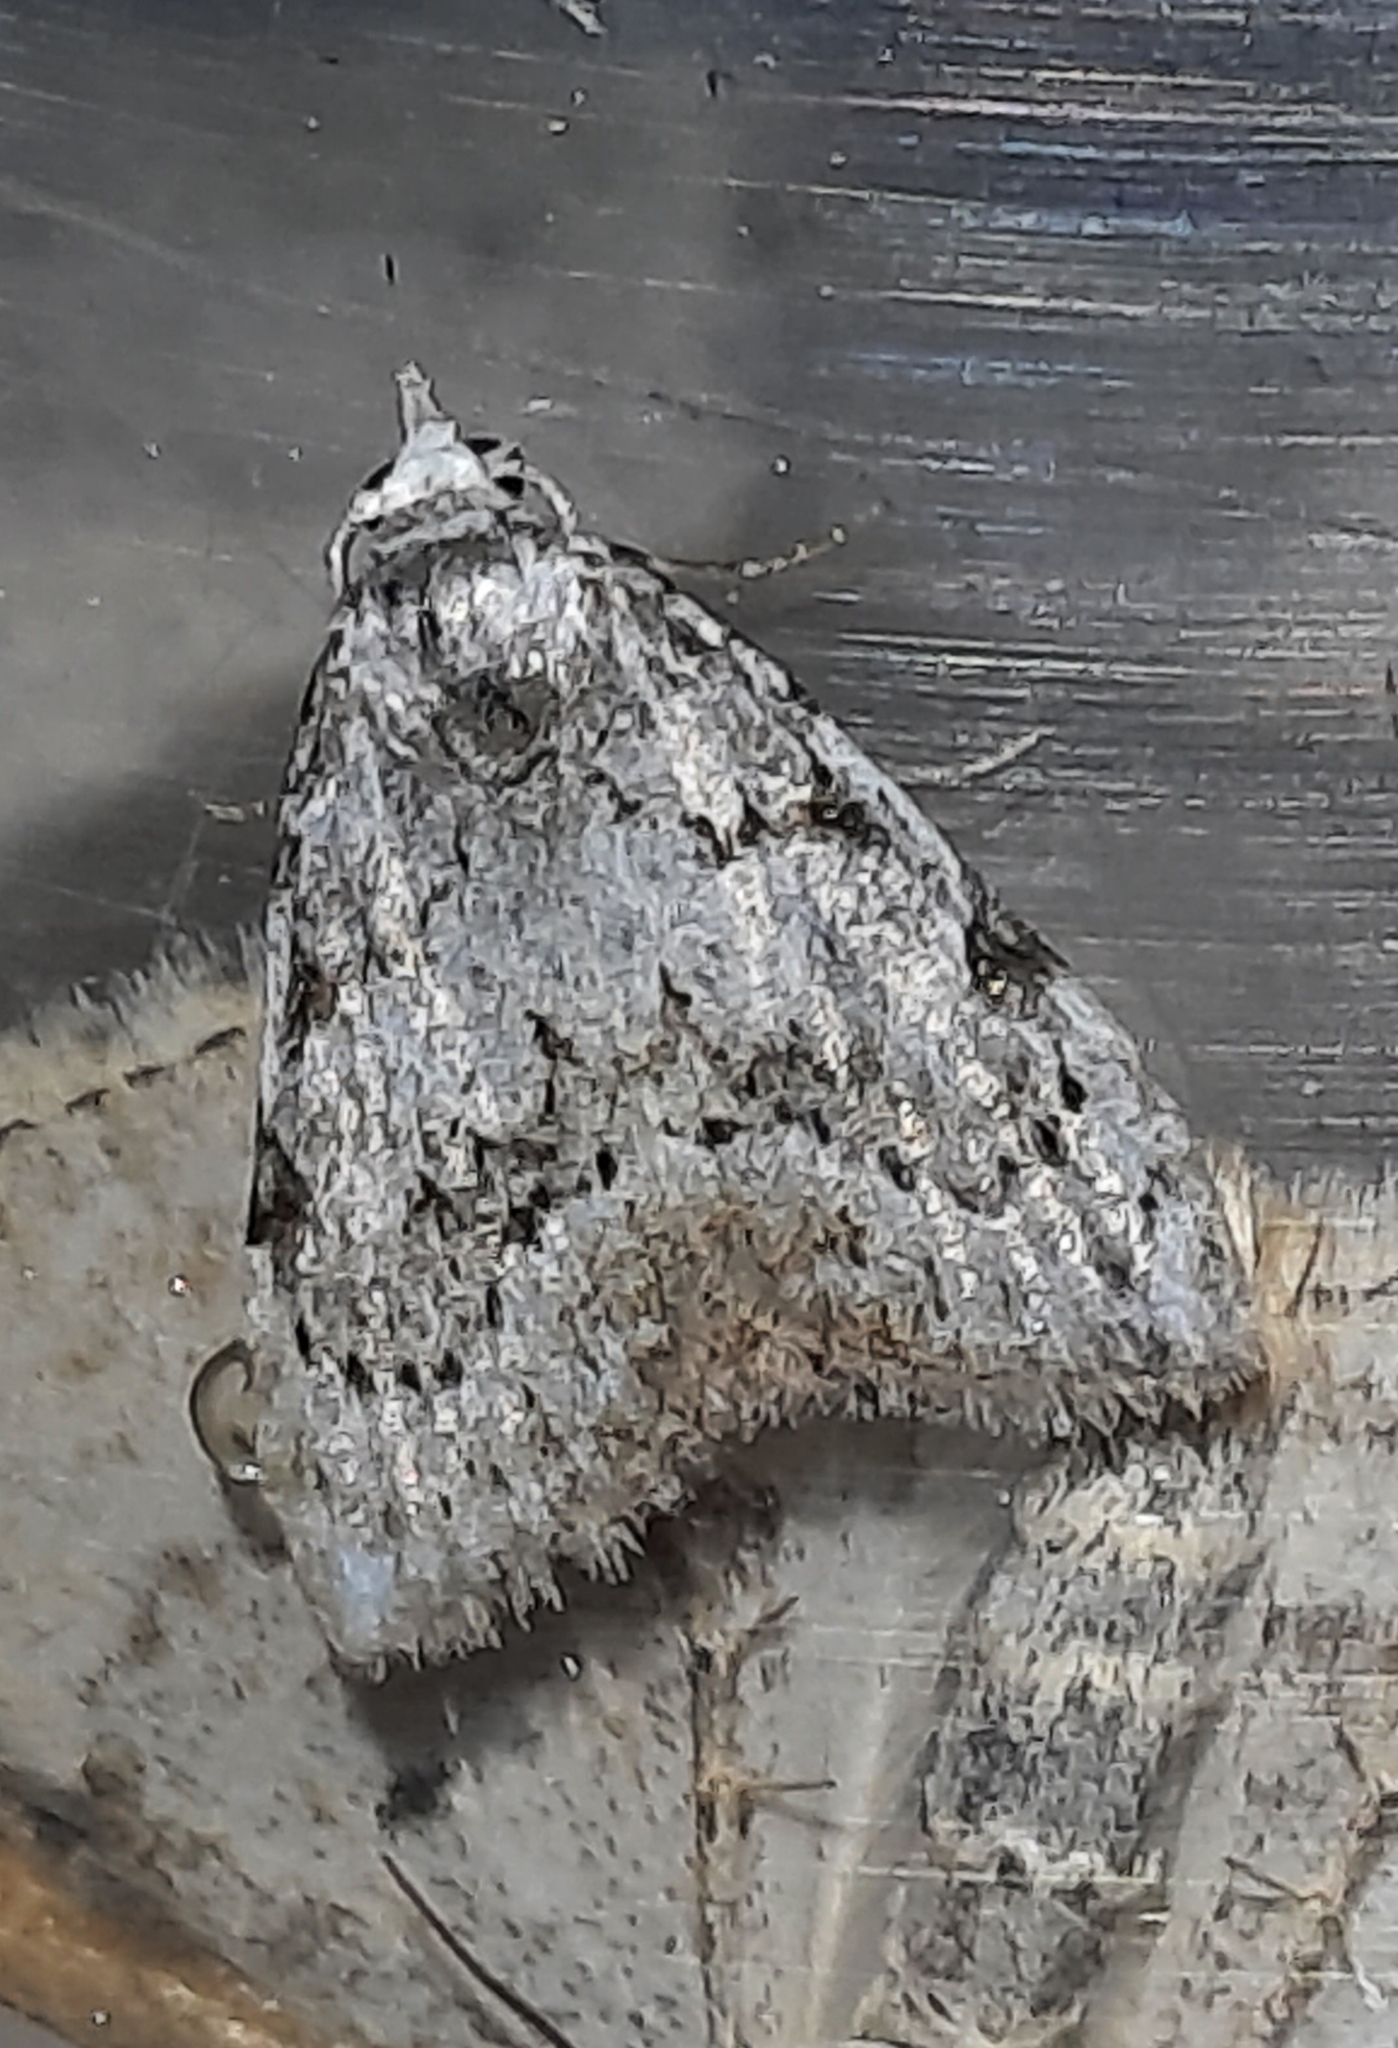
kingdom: Animalia
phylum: Arthropoda
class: Insecta
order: Lepidoptera
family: Nolidae
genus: Nola
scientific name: Nola confusalis
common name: Least black arches
